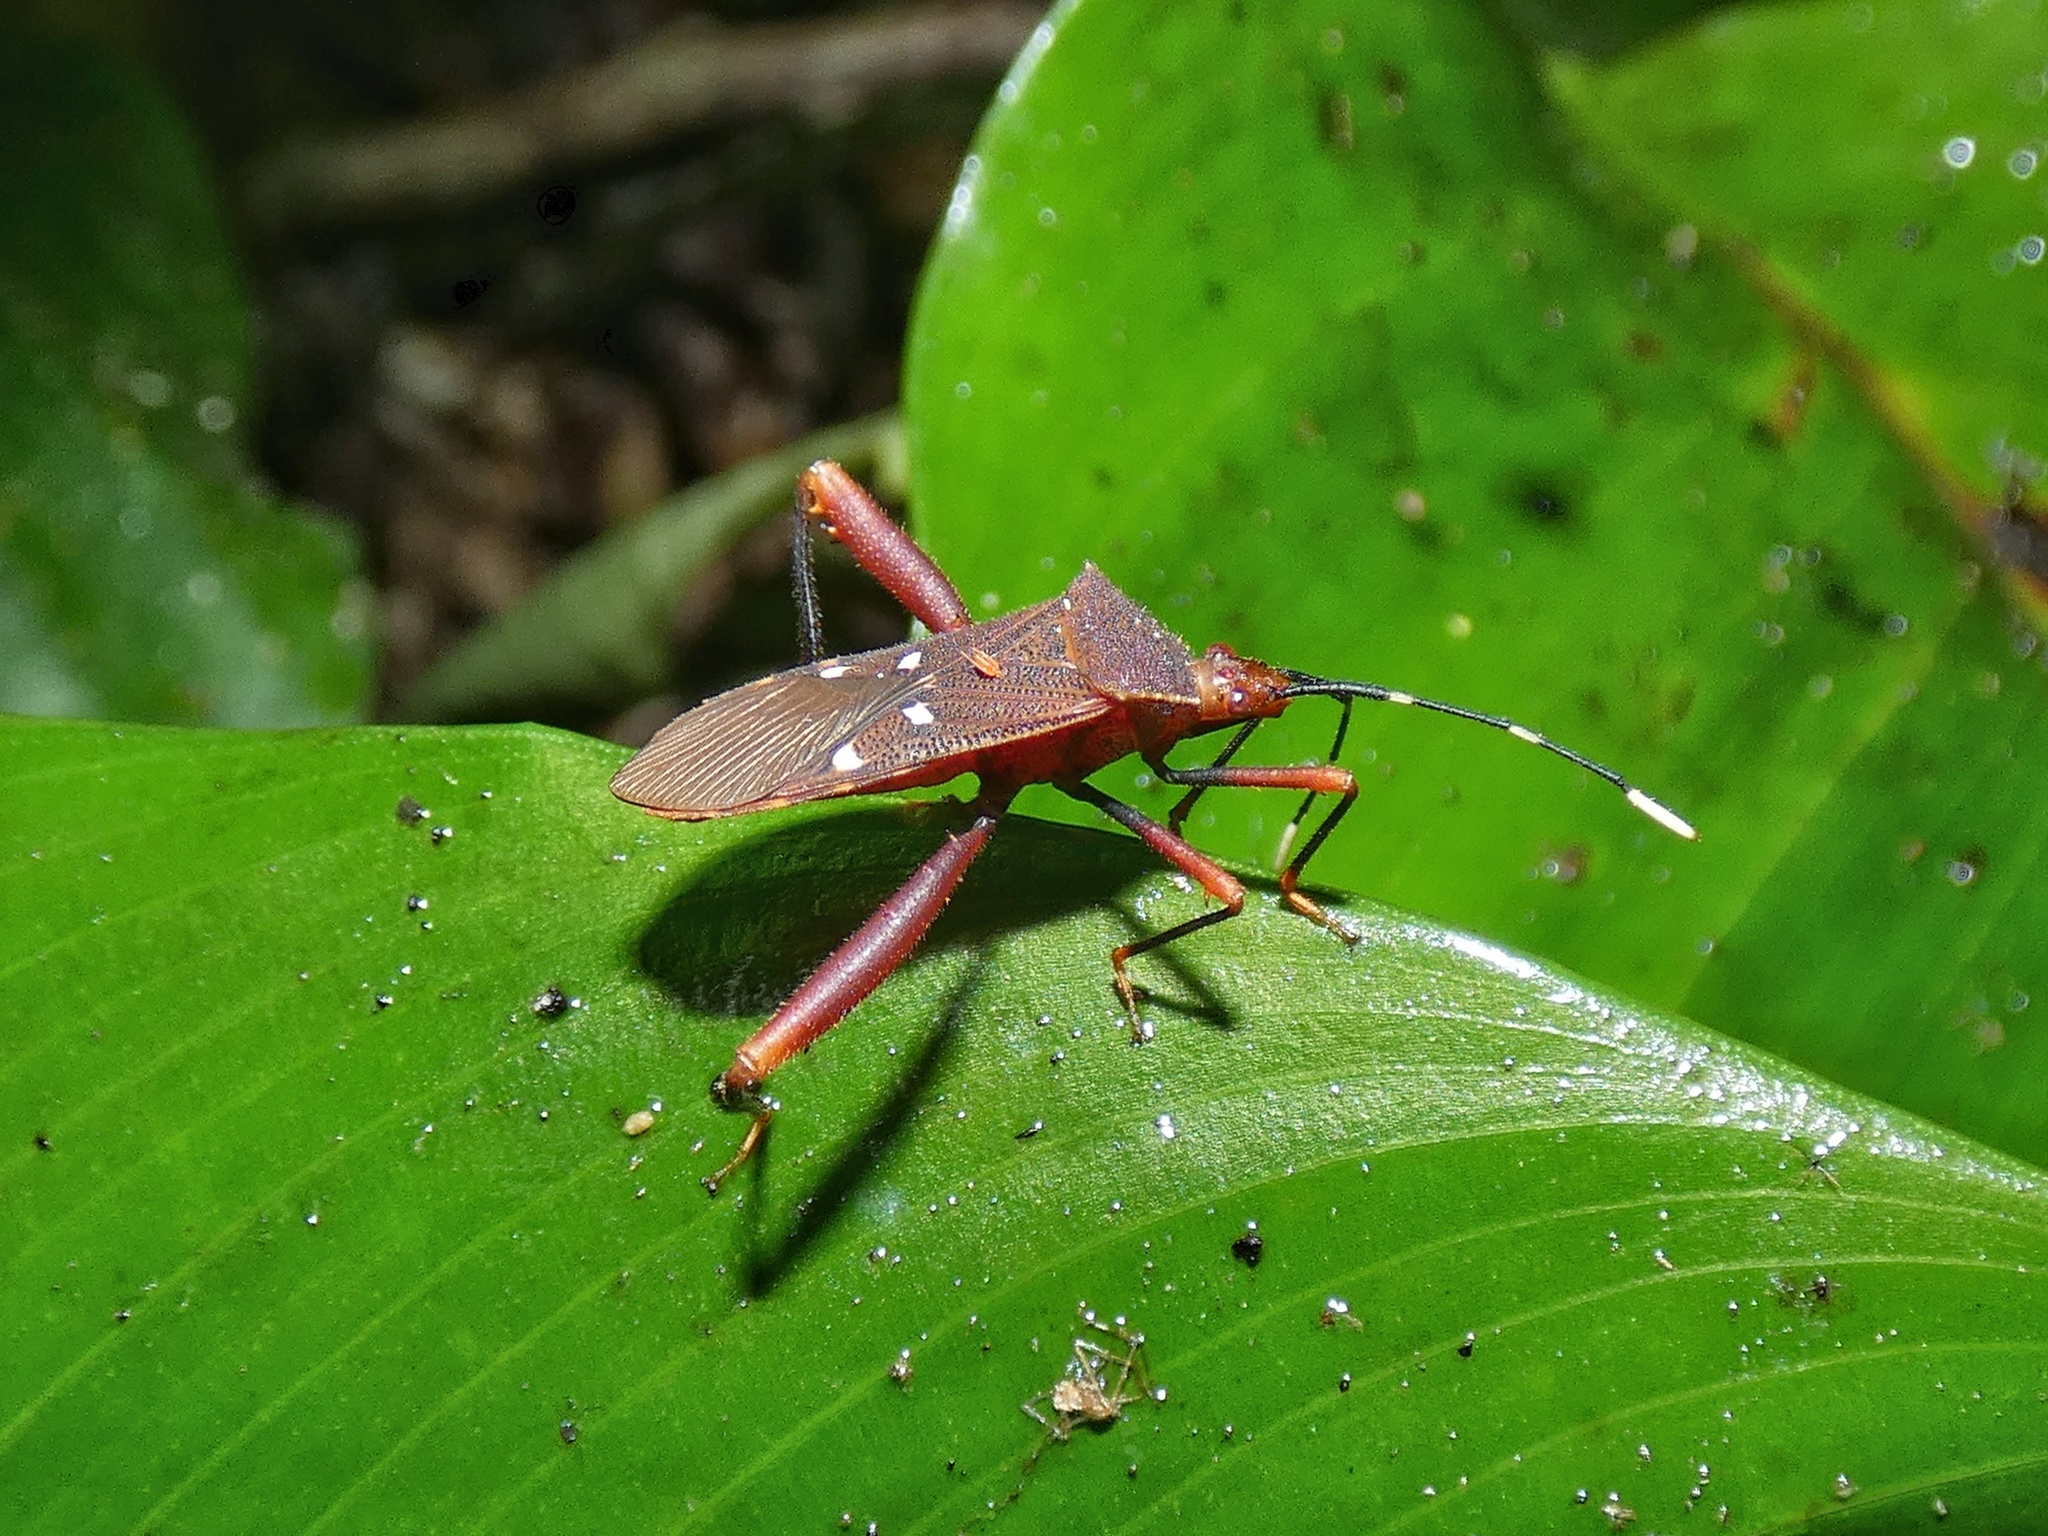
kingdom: Animalia
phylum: Arthropoda
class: Insecta
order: Hemiptera
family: Coreidae
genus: Leptoscelis
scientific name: Leptoscelis quadrisignatus
